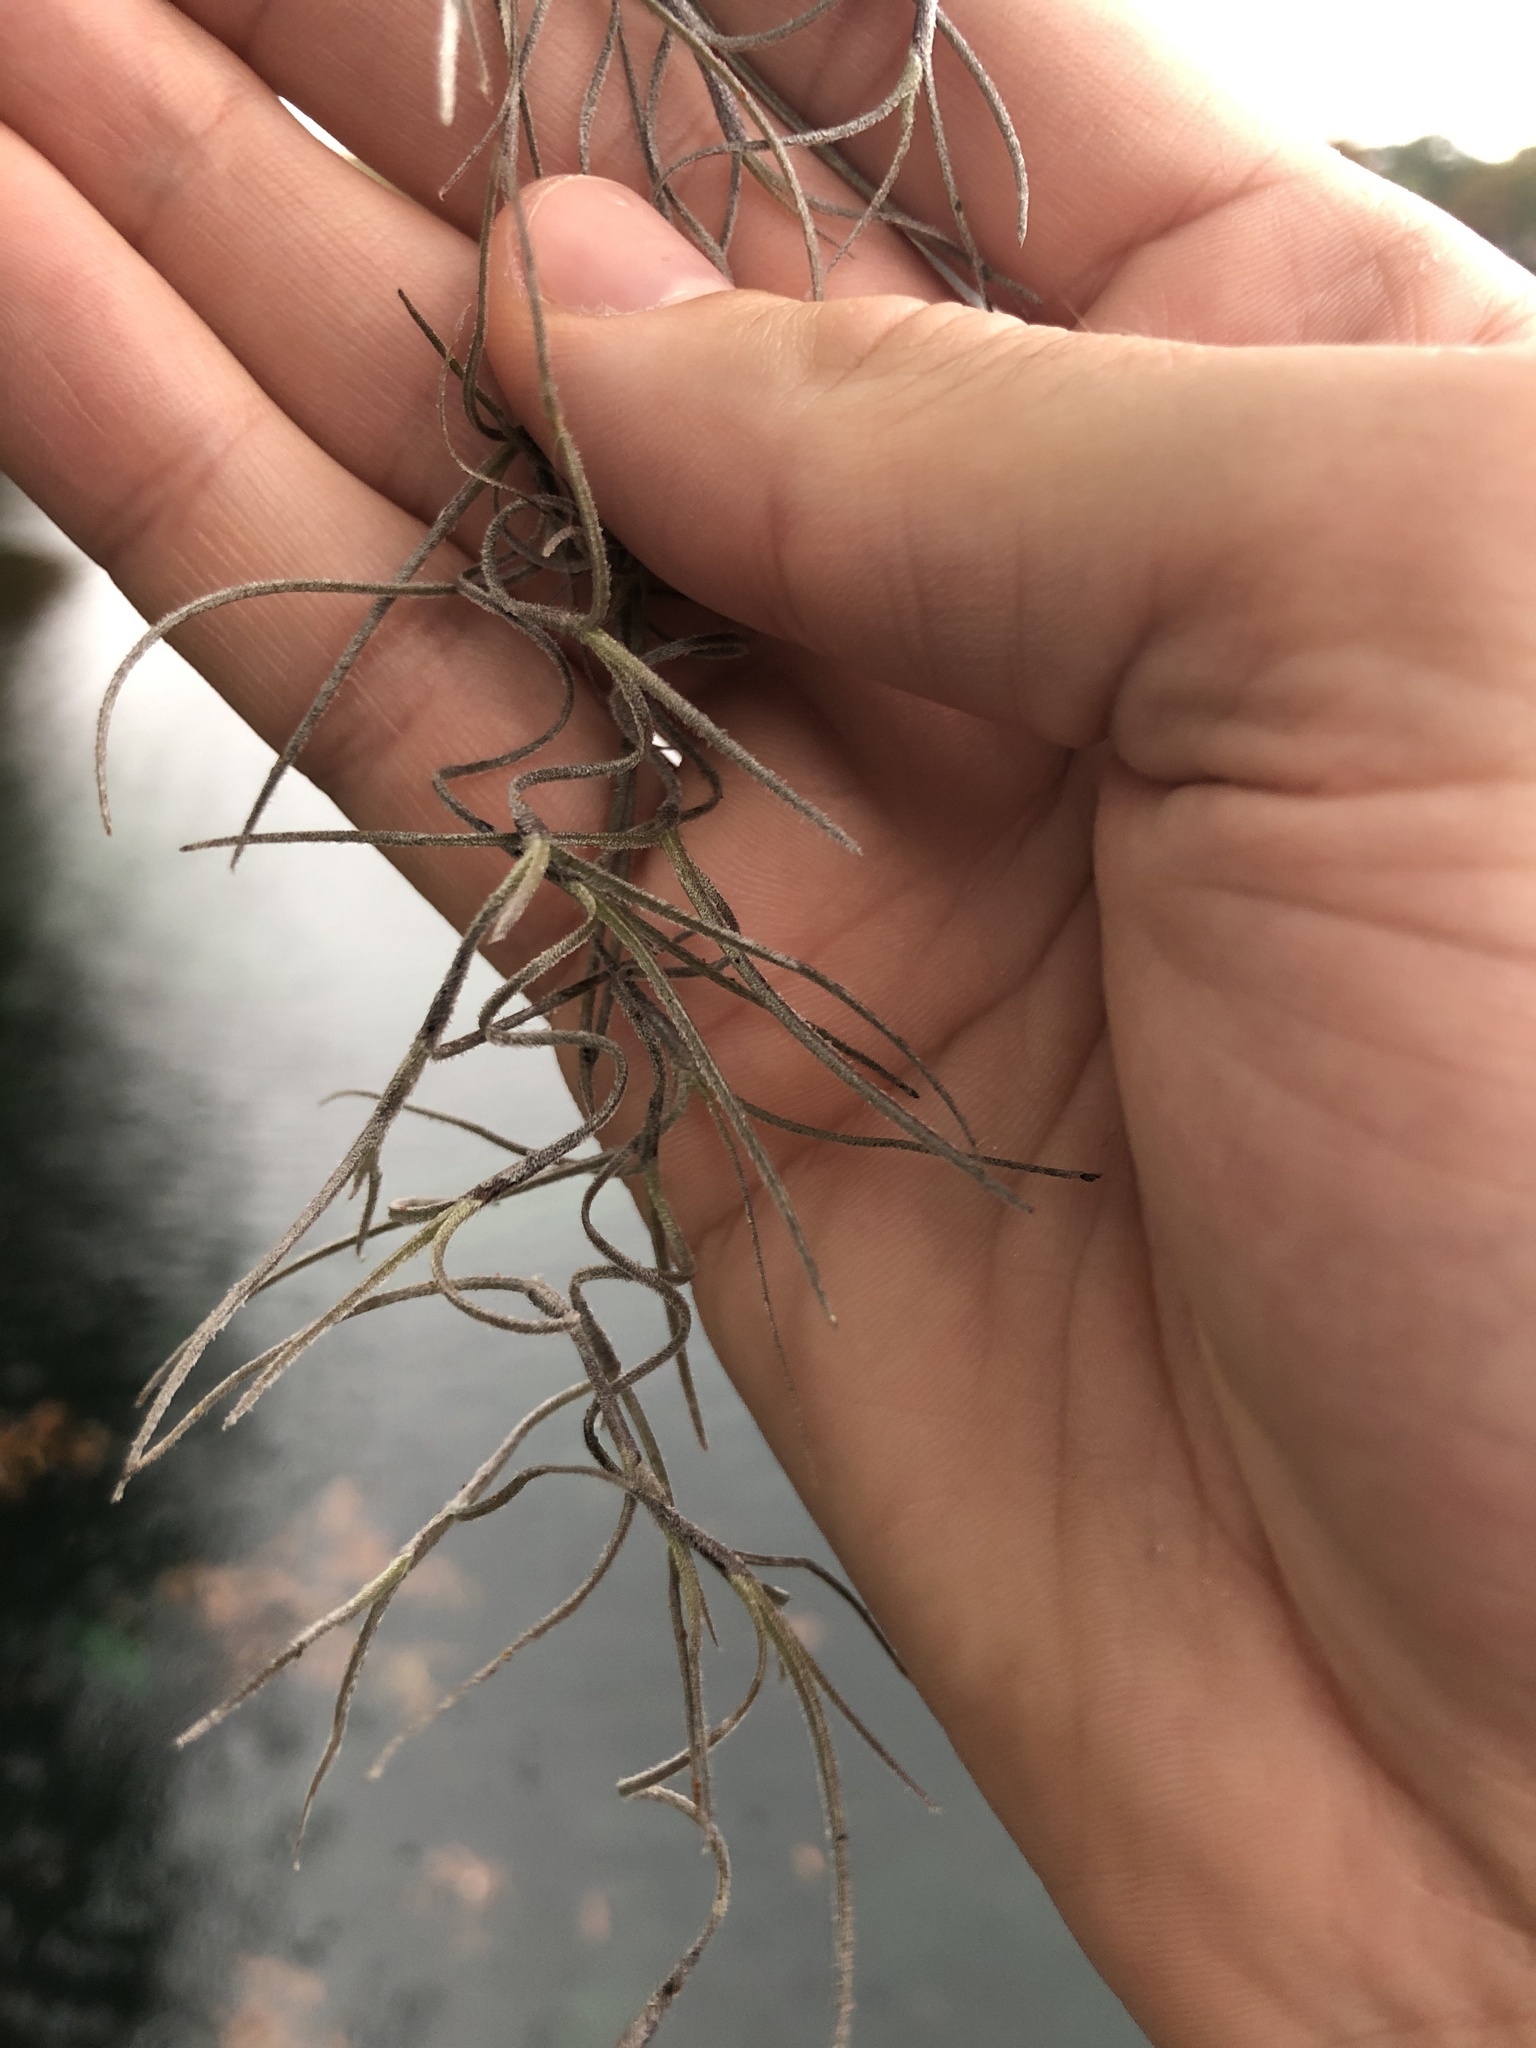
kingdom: Plantae
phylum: Tracheophyta
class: Liliopsida
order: Poales
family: Bromeliaceae
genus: Tillandsia
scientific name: Tillandsia usneoides
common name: Spanish moss
